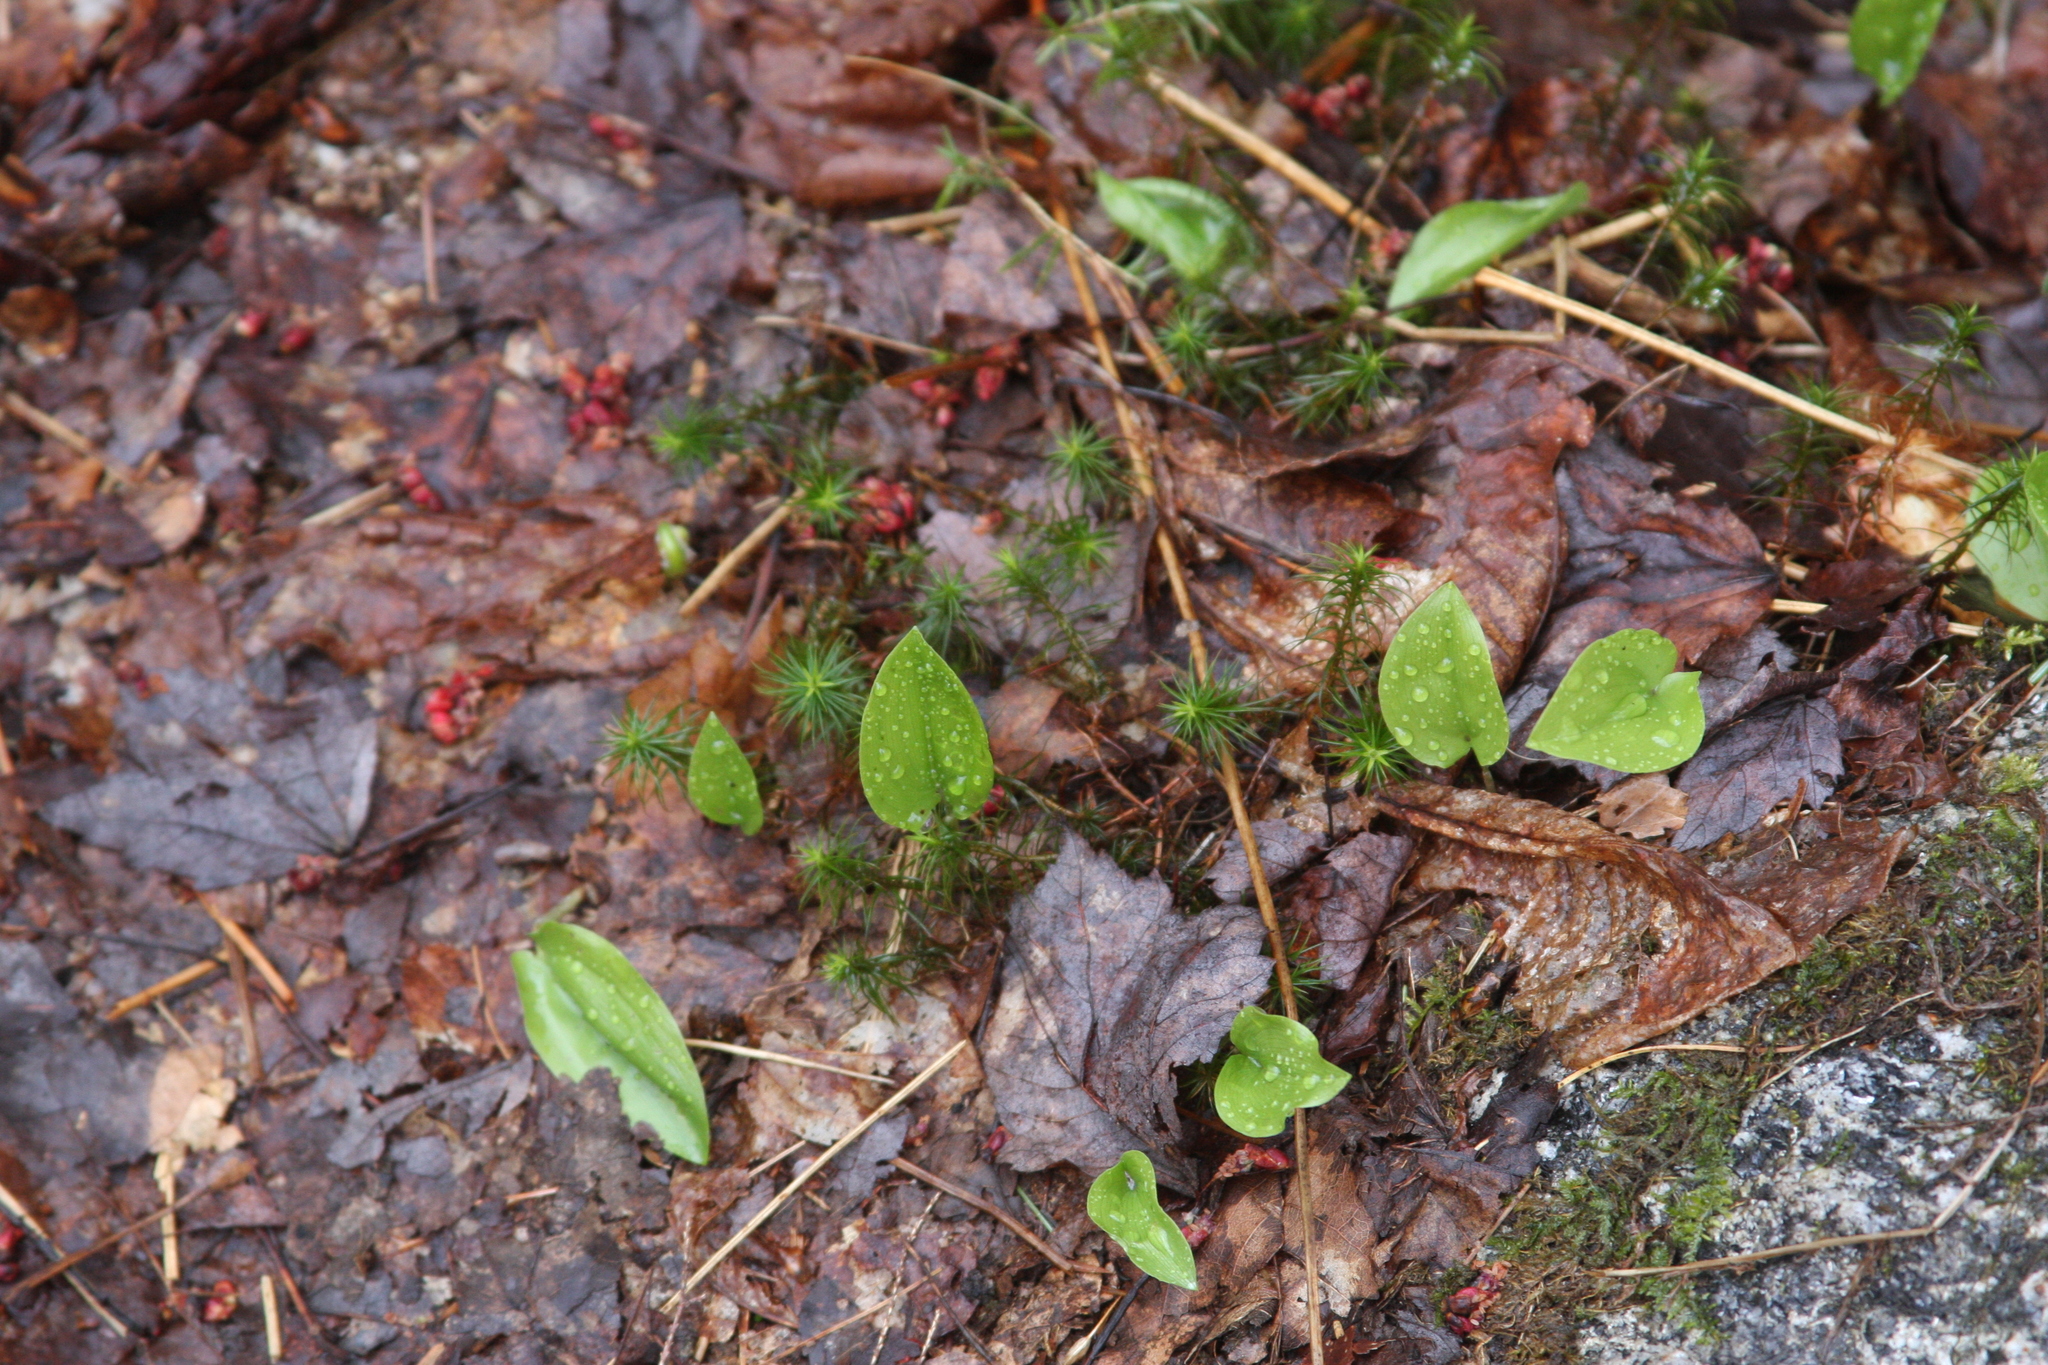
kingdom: Plantae
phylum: Tracheophyta
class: Liliopsida
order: Asparagales
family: Asparagaceae
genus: Maianthemum
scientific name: Maianthemum canadense
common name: False lily-of-the-valley
